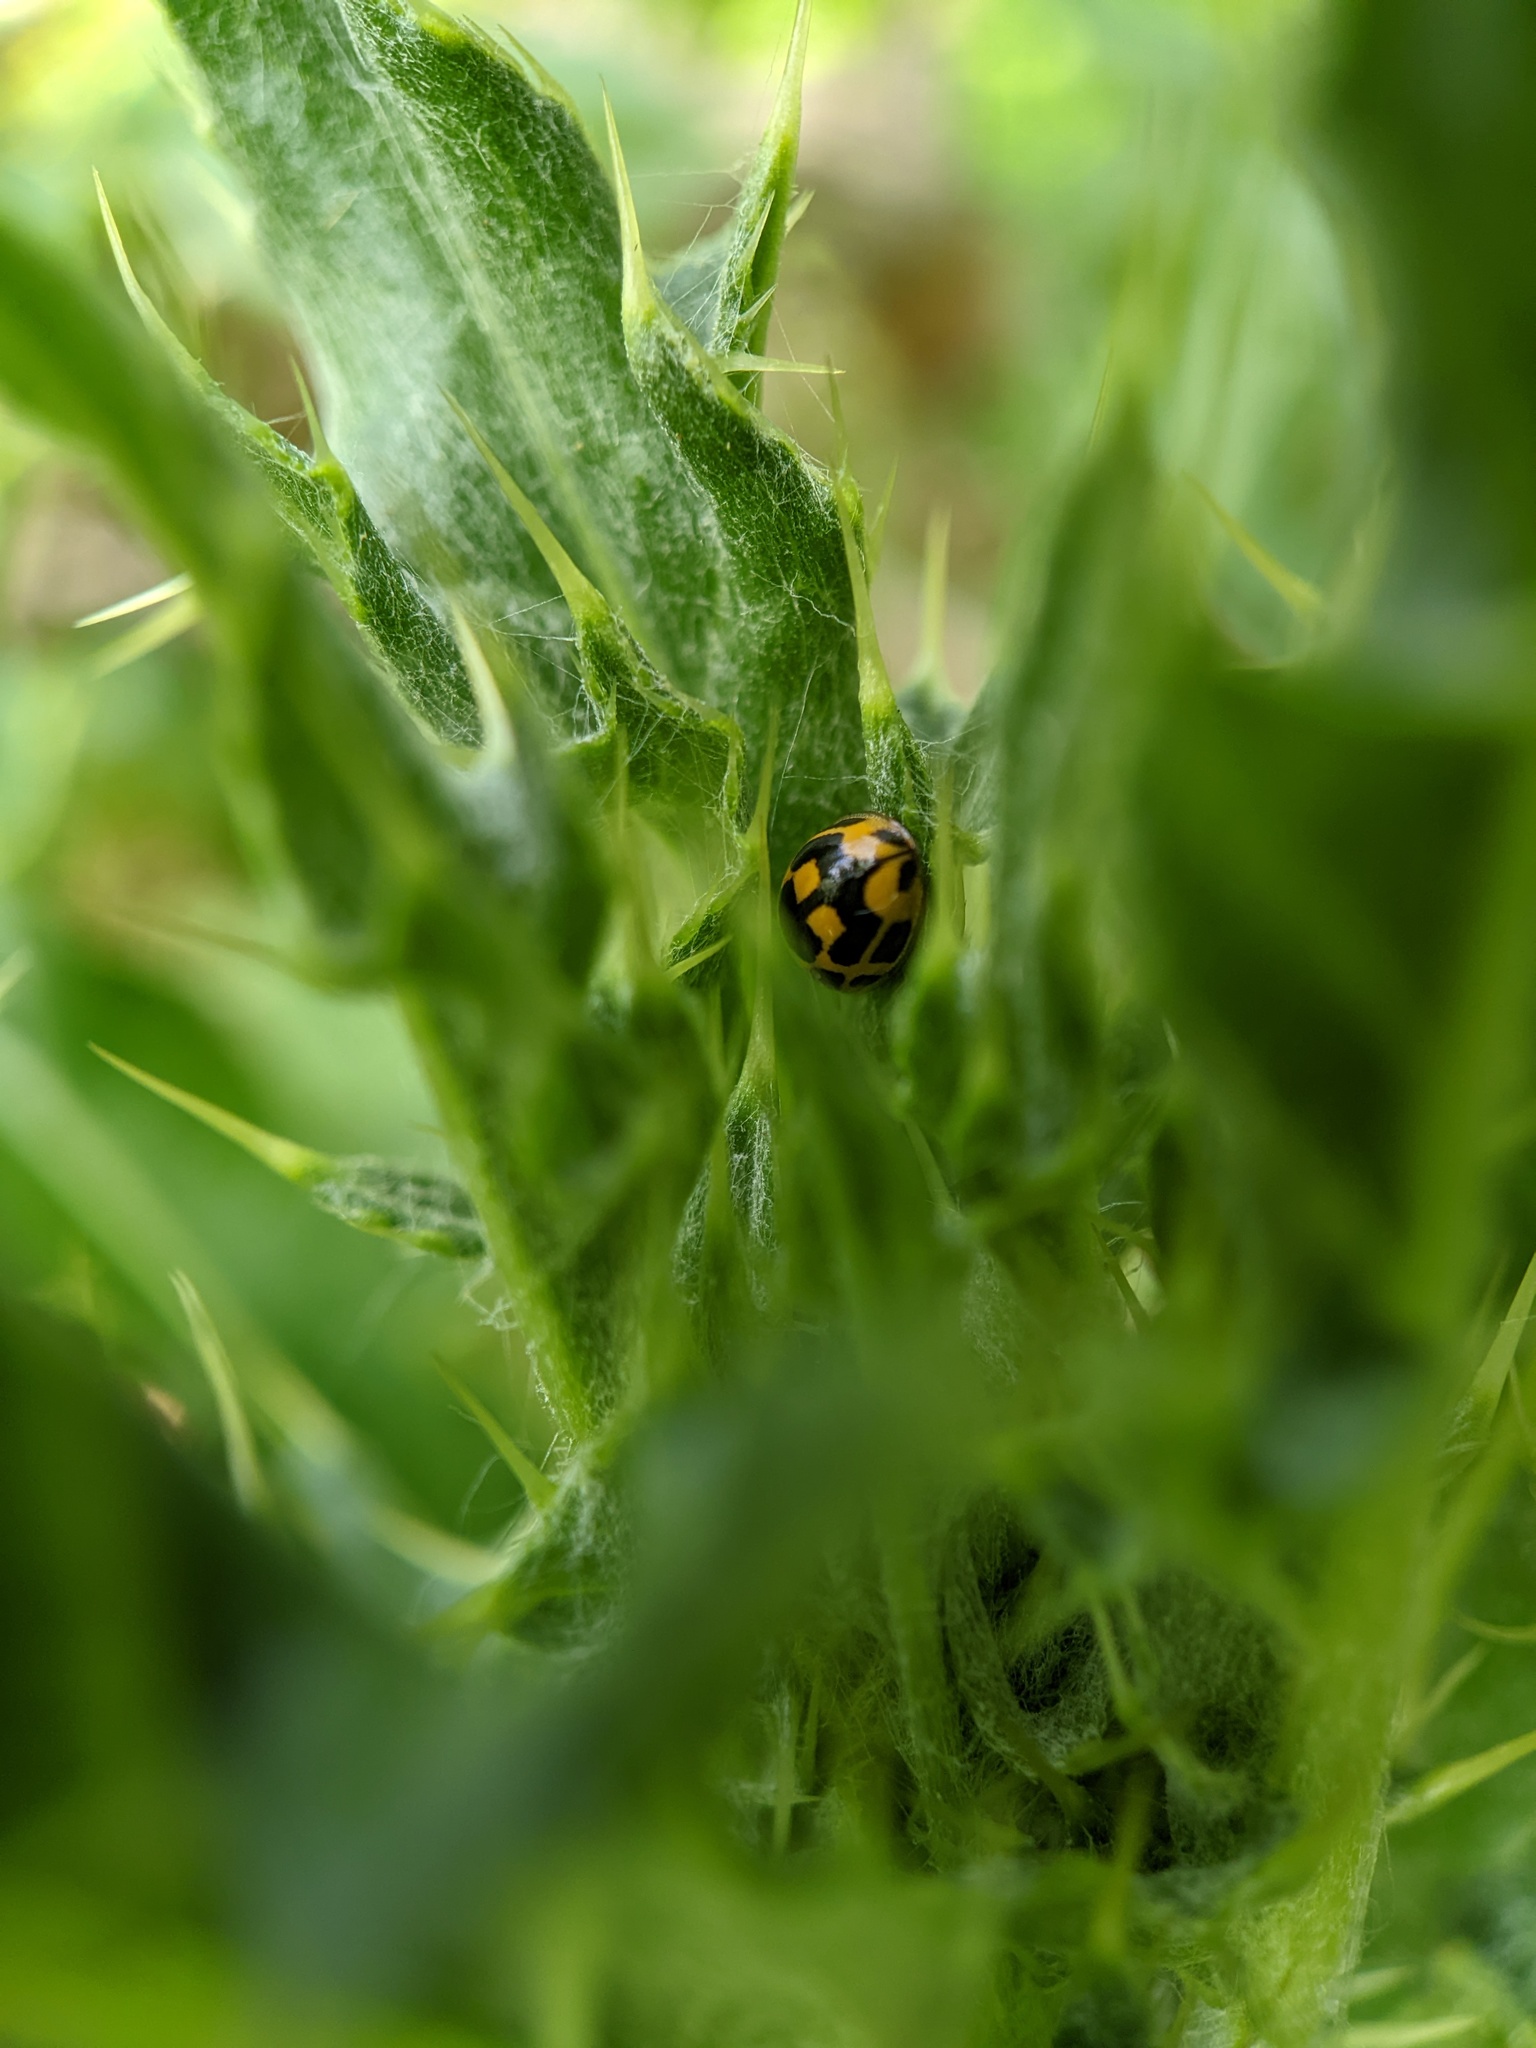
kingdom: Animalia
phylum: Arthropoda
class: Insecta
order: Coleoptera
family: Coccinellidae
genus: Propylaea
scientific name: Propylaea quatuordecimpunctata
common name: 14-spotted ladybird beetle
